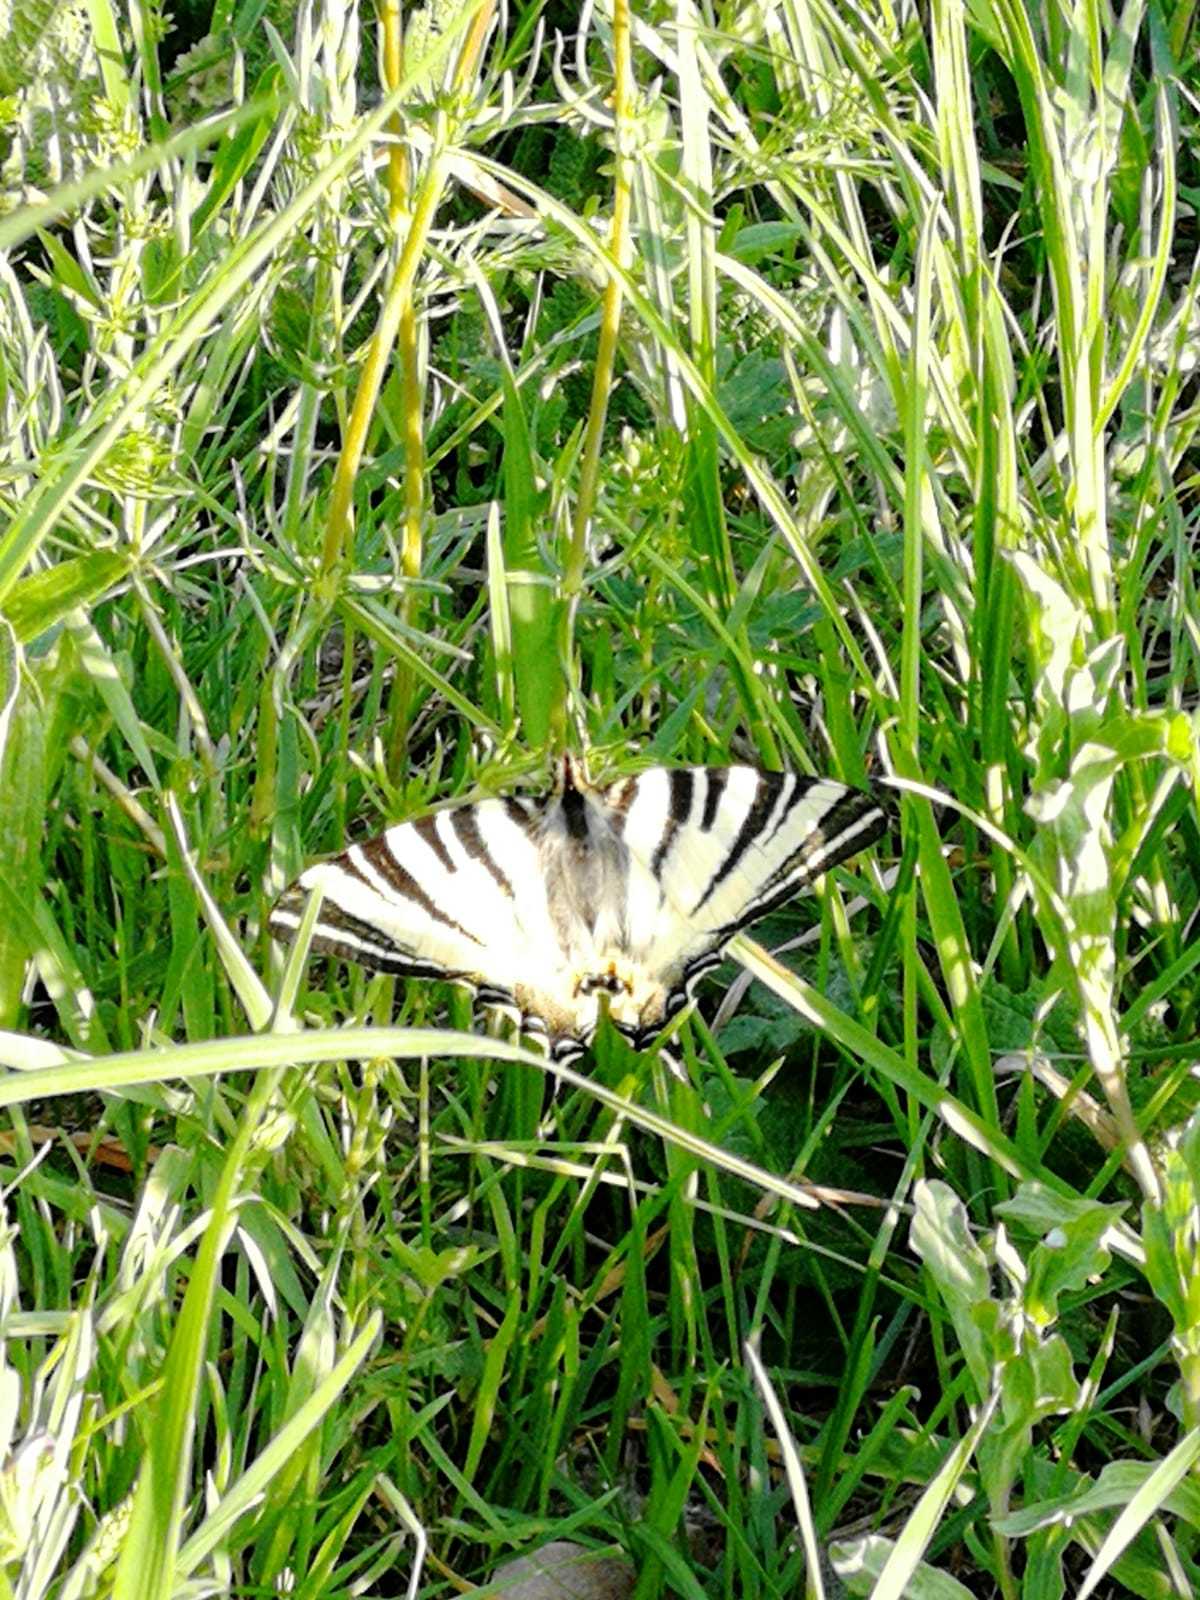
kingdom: Animalia
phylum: Arthropoda
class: Insecta
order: Lepidoptera
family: Papilionidae
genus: Iphiclides
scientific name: Iphiclides podalirius
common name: Scarce swallowtail
